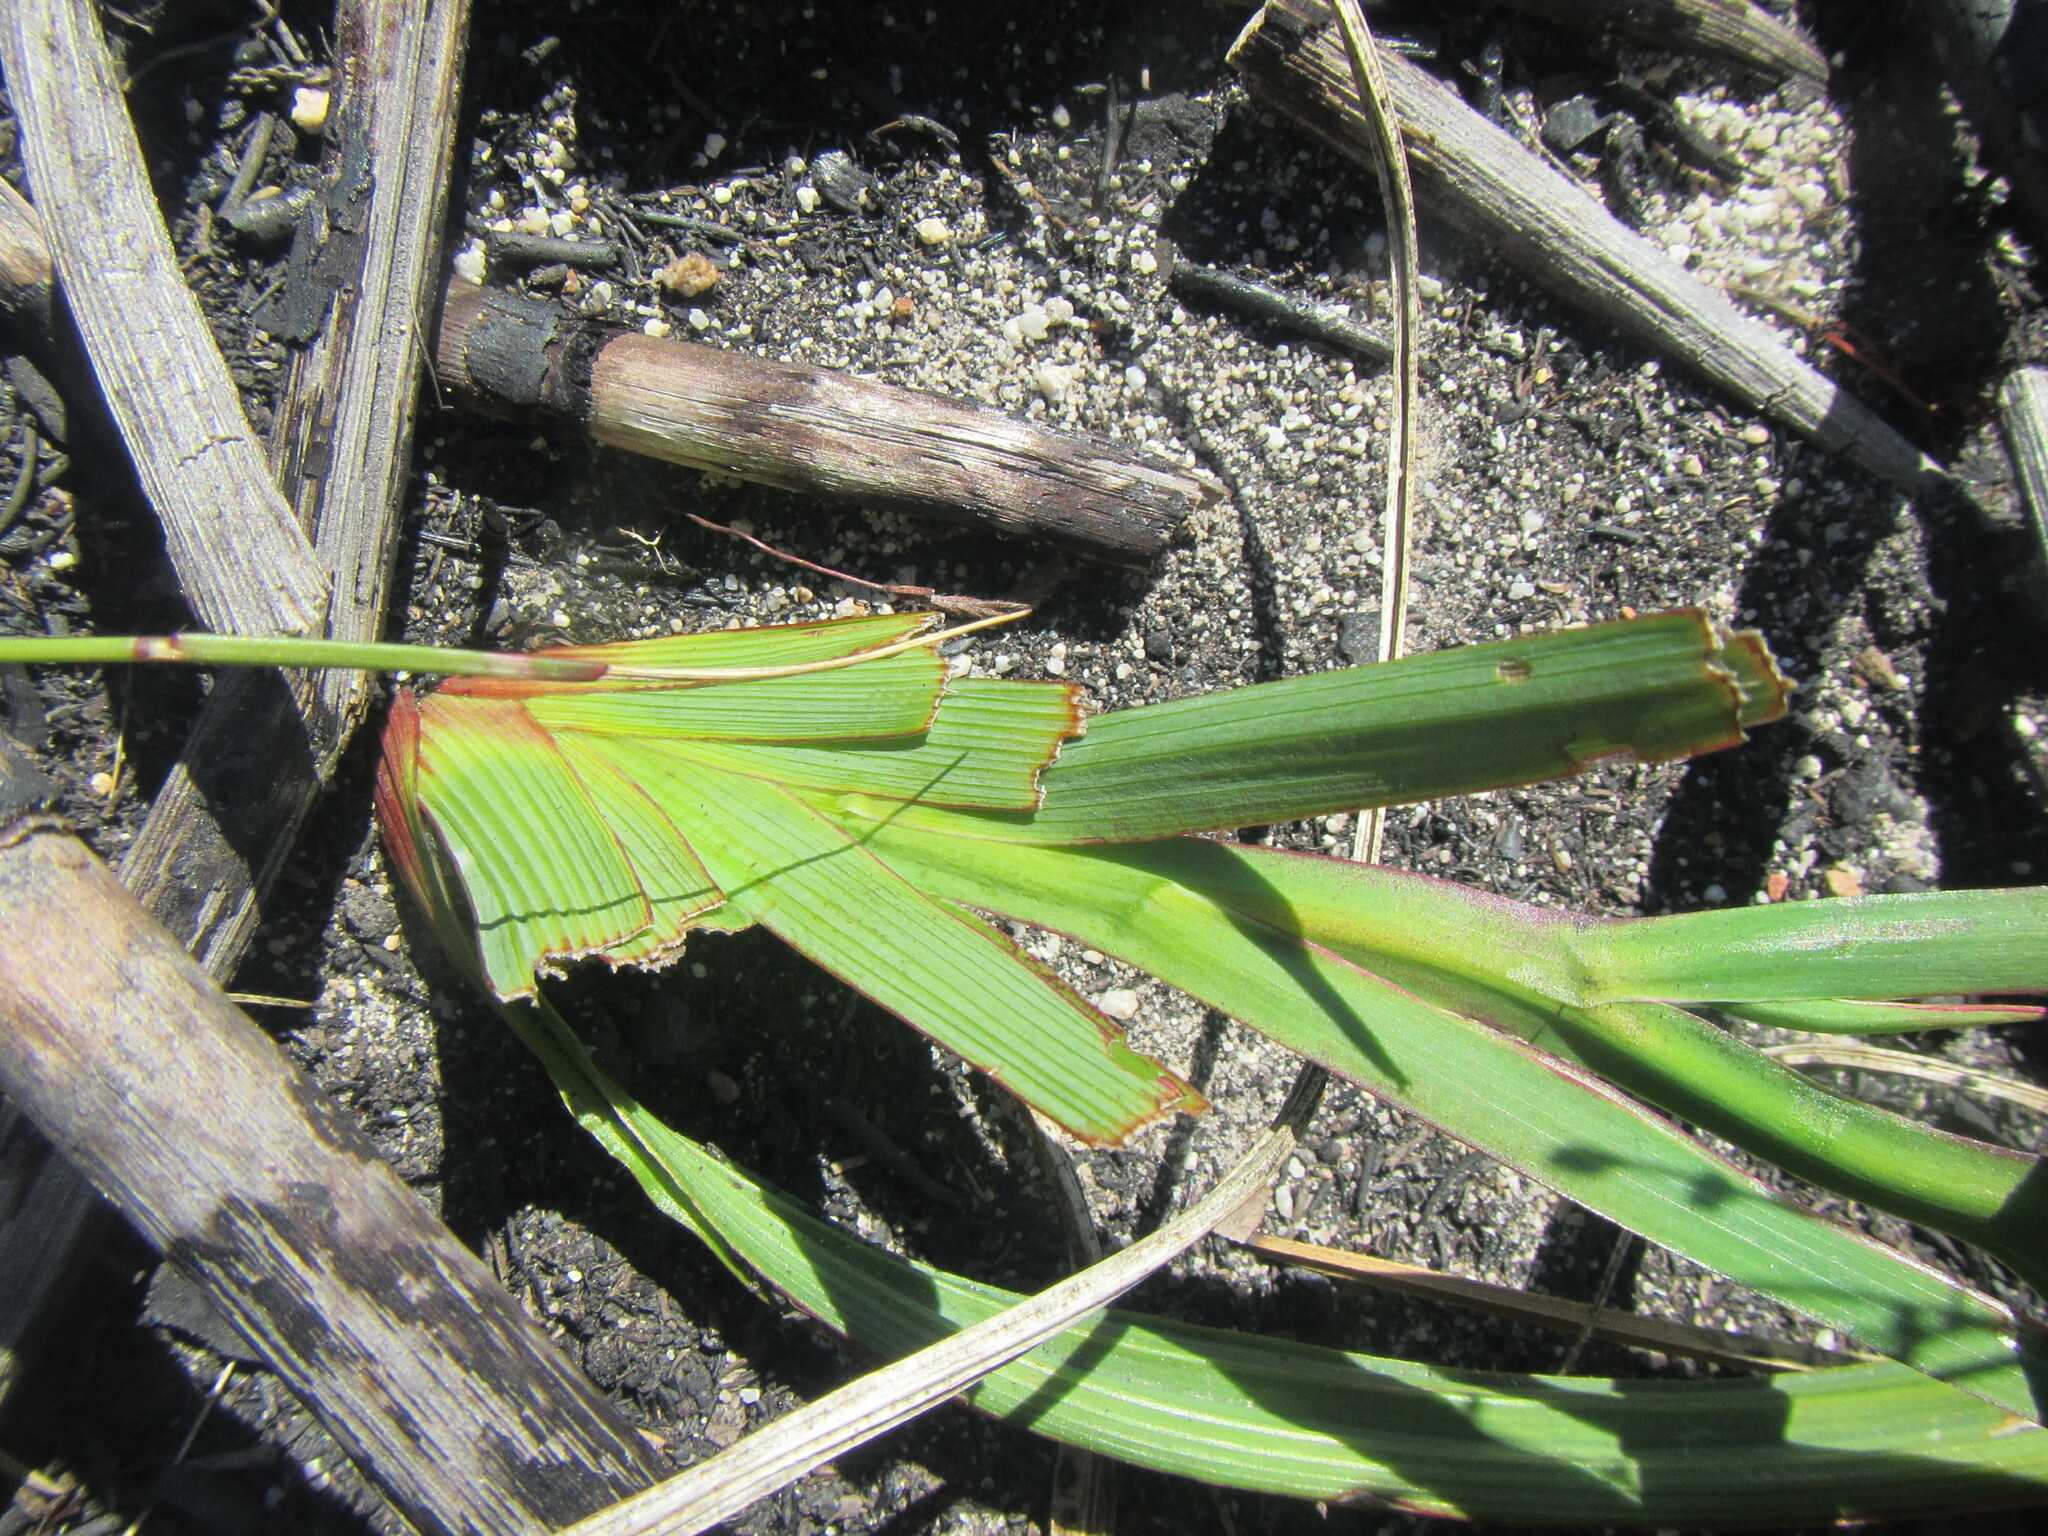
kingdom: Plantae
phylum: Tracheophyta
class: Liliopsida
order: Asparagales
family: Iridaceae
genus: Thereianthus
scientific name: Thereianthus spicatus
